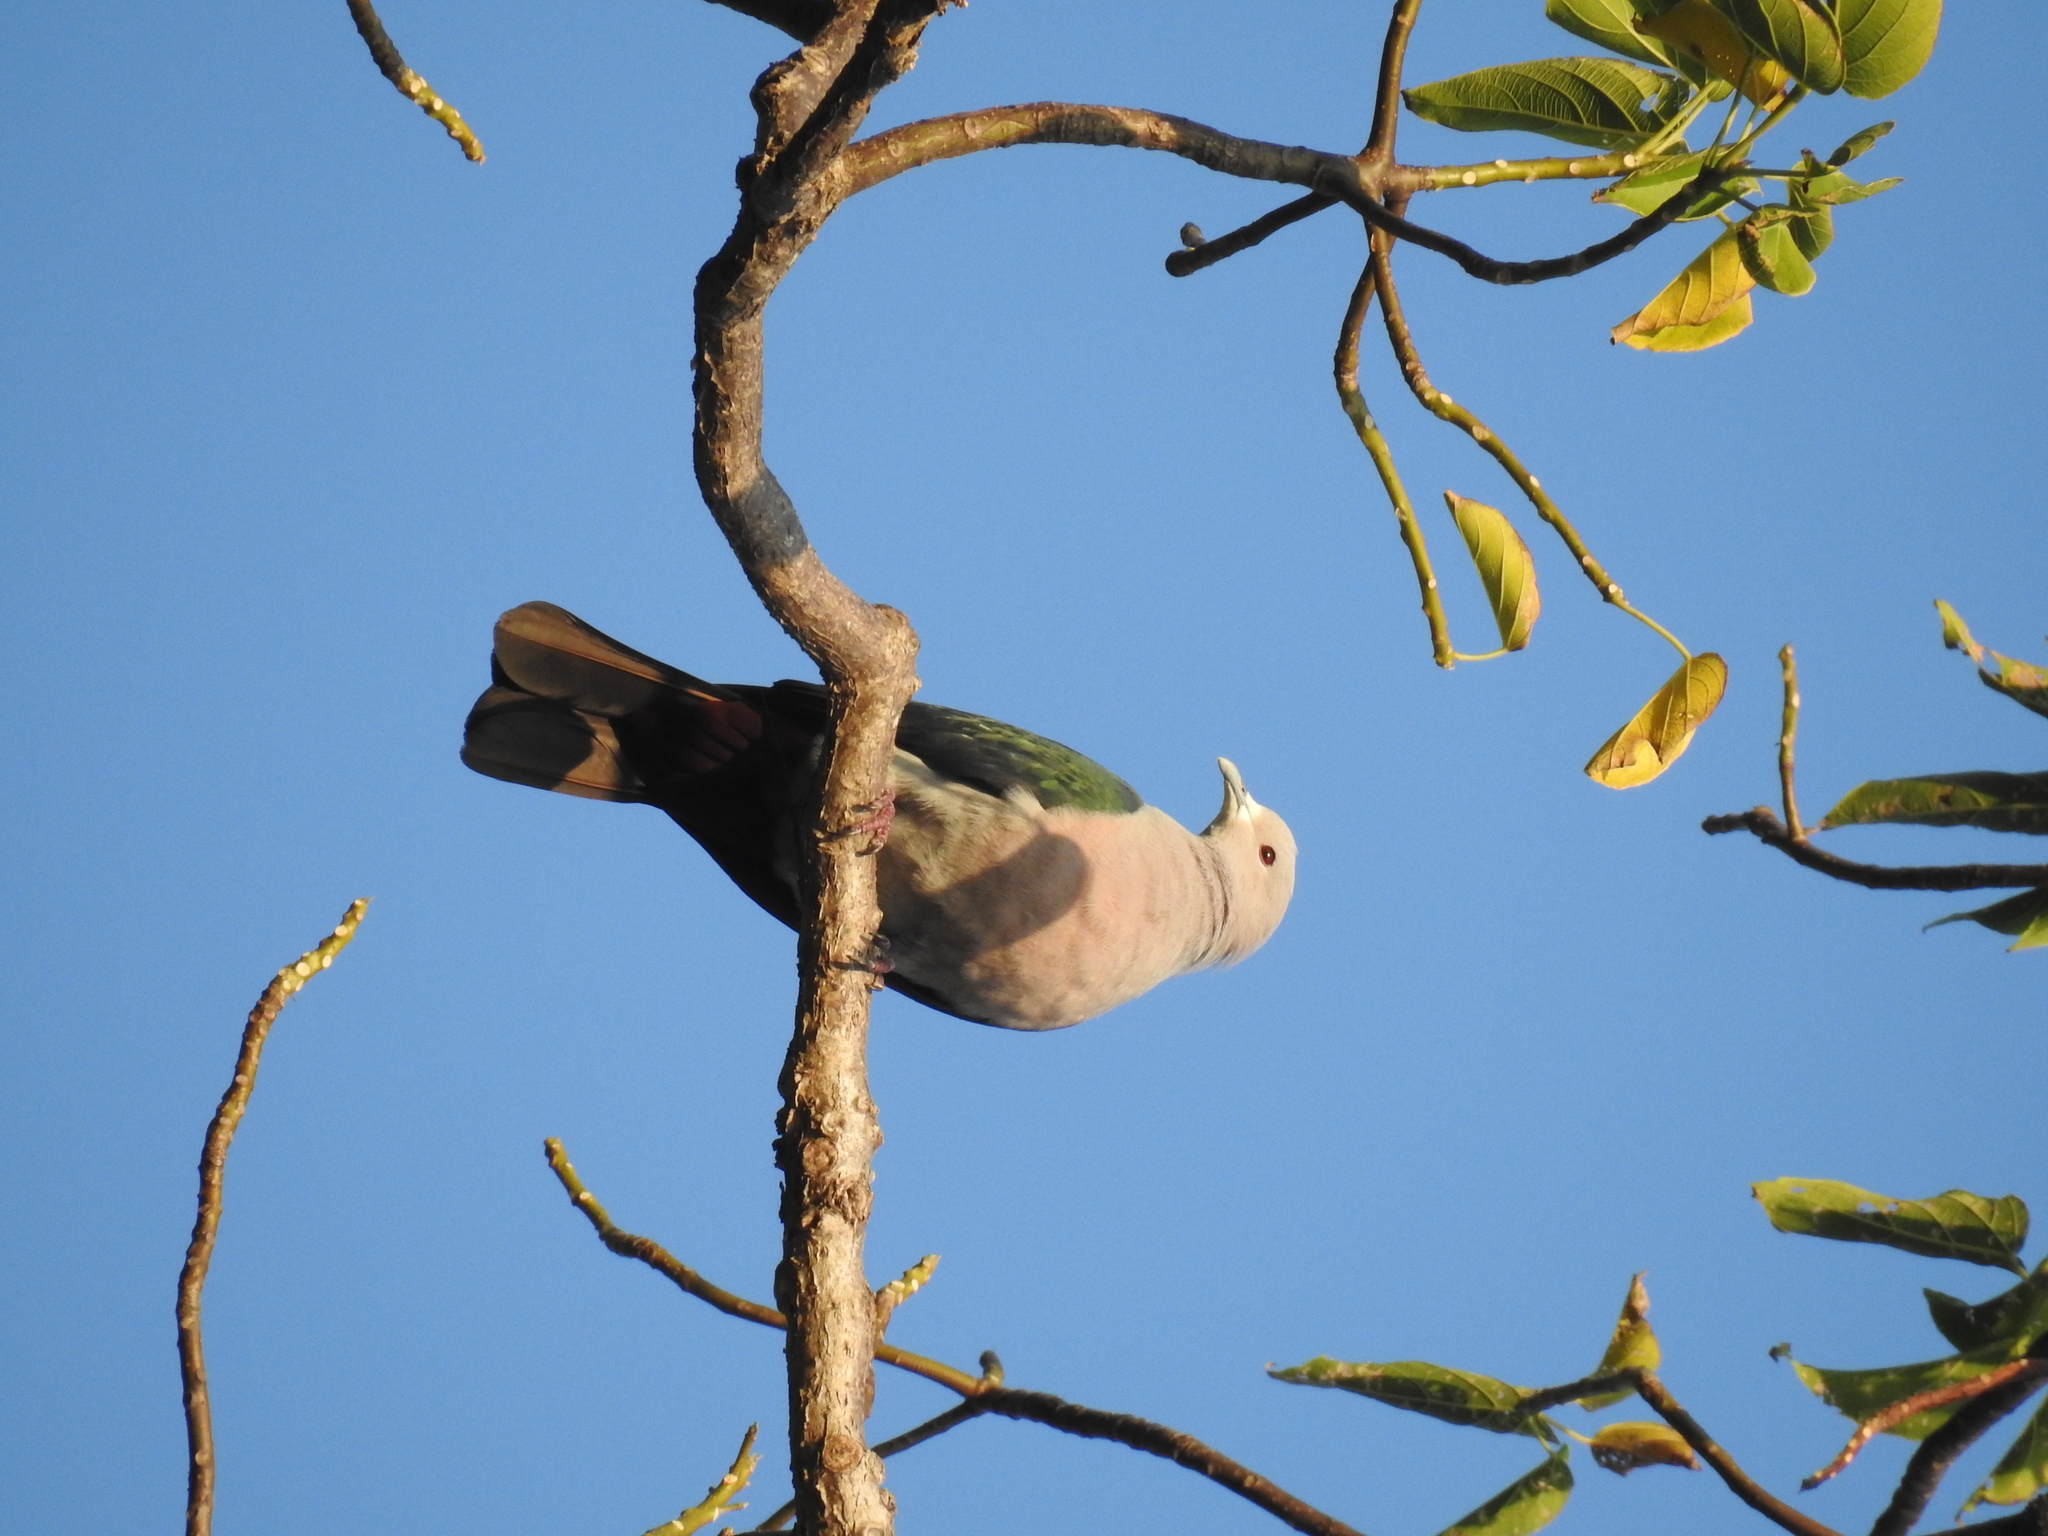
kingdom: Animalia
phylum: Chordata
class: Aves
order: Columbiformes
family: Columbidae
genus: Ducula
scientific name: Ducula aenea
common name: Green imperial pigeon
